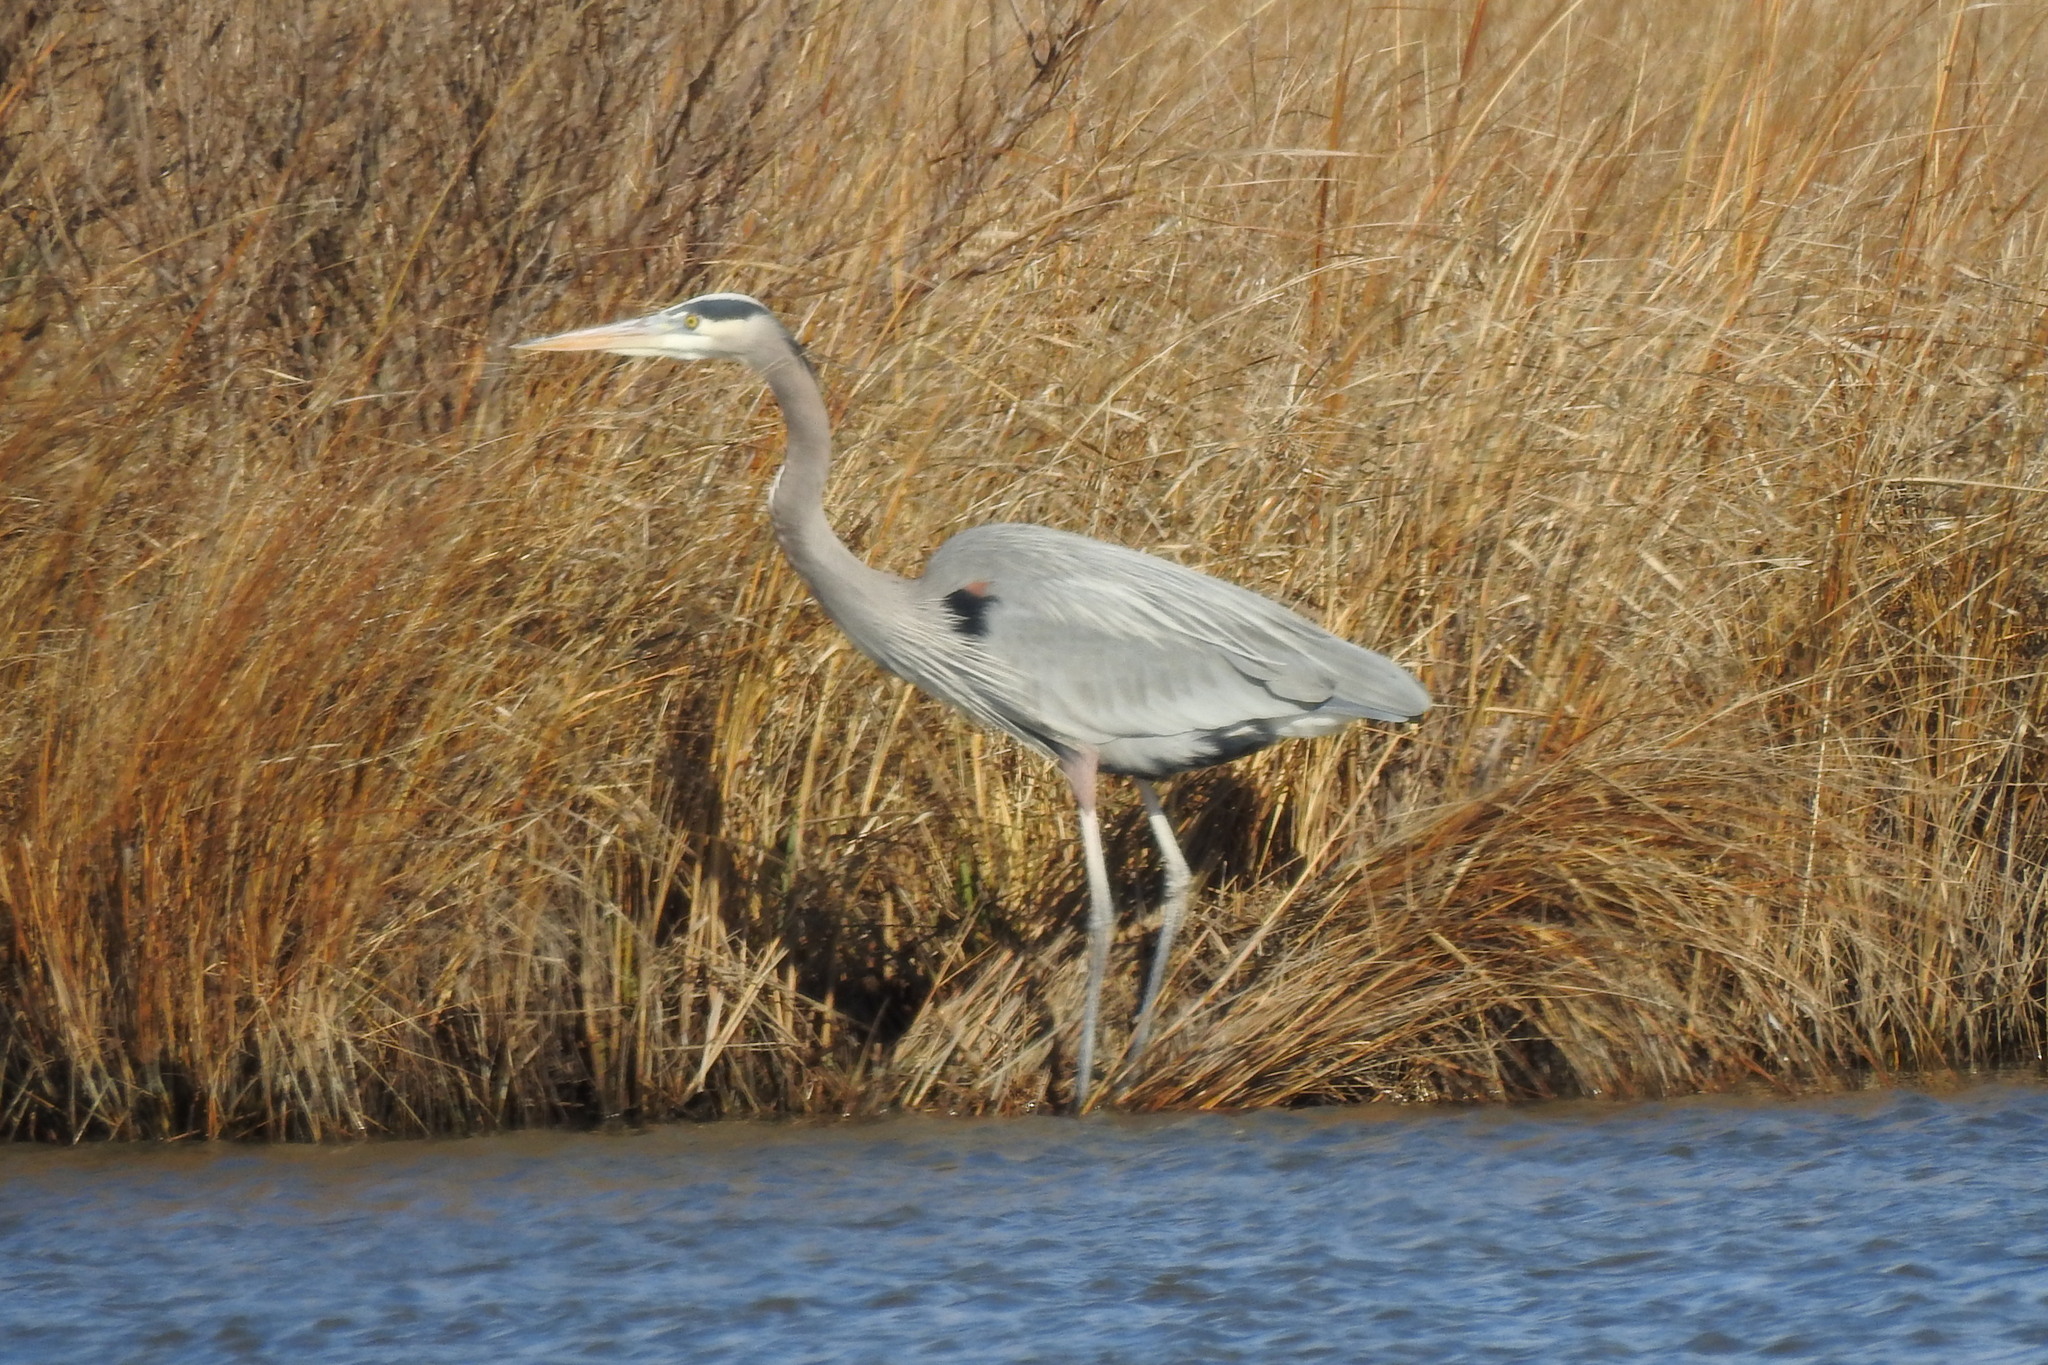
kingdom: Animalia
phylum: Chordata
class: Aves
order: Pelecaniformes
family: Ardeidae
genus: Ardea
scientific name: Ardea herodias
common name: Great blue heron
